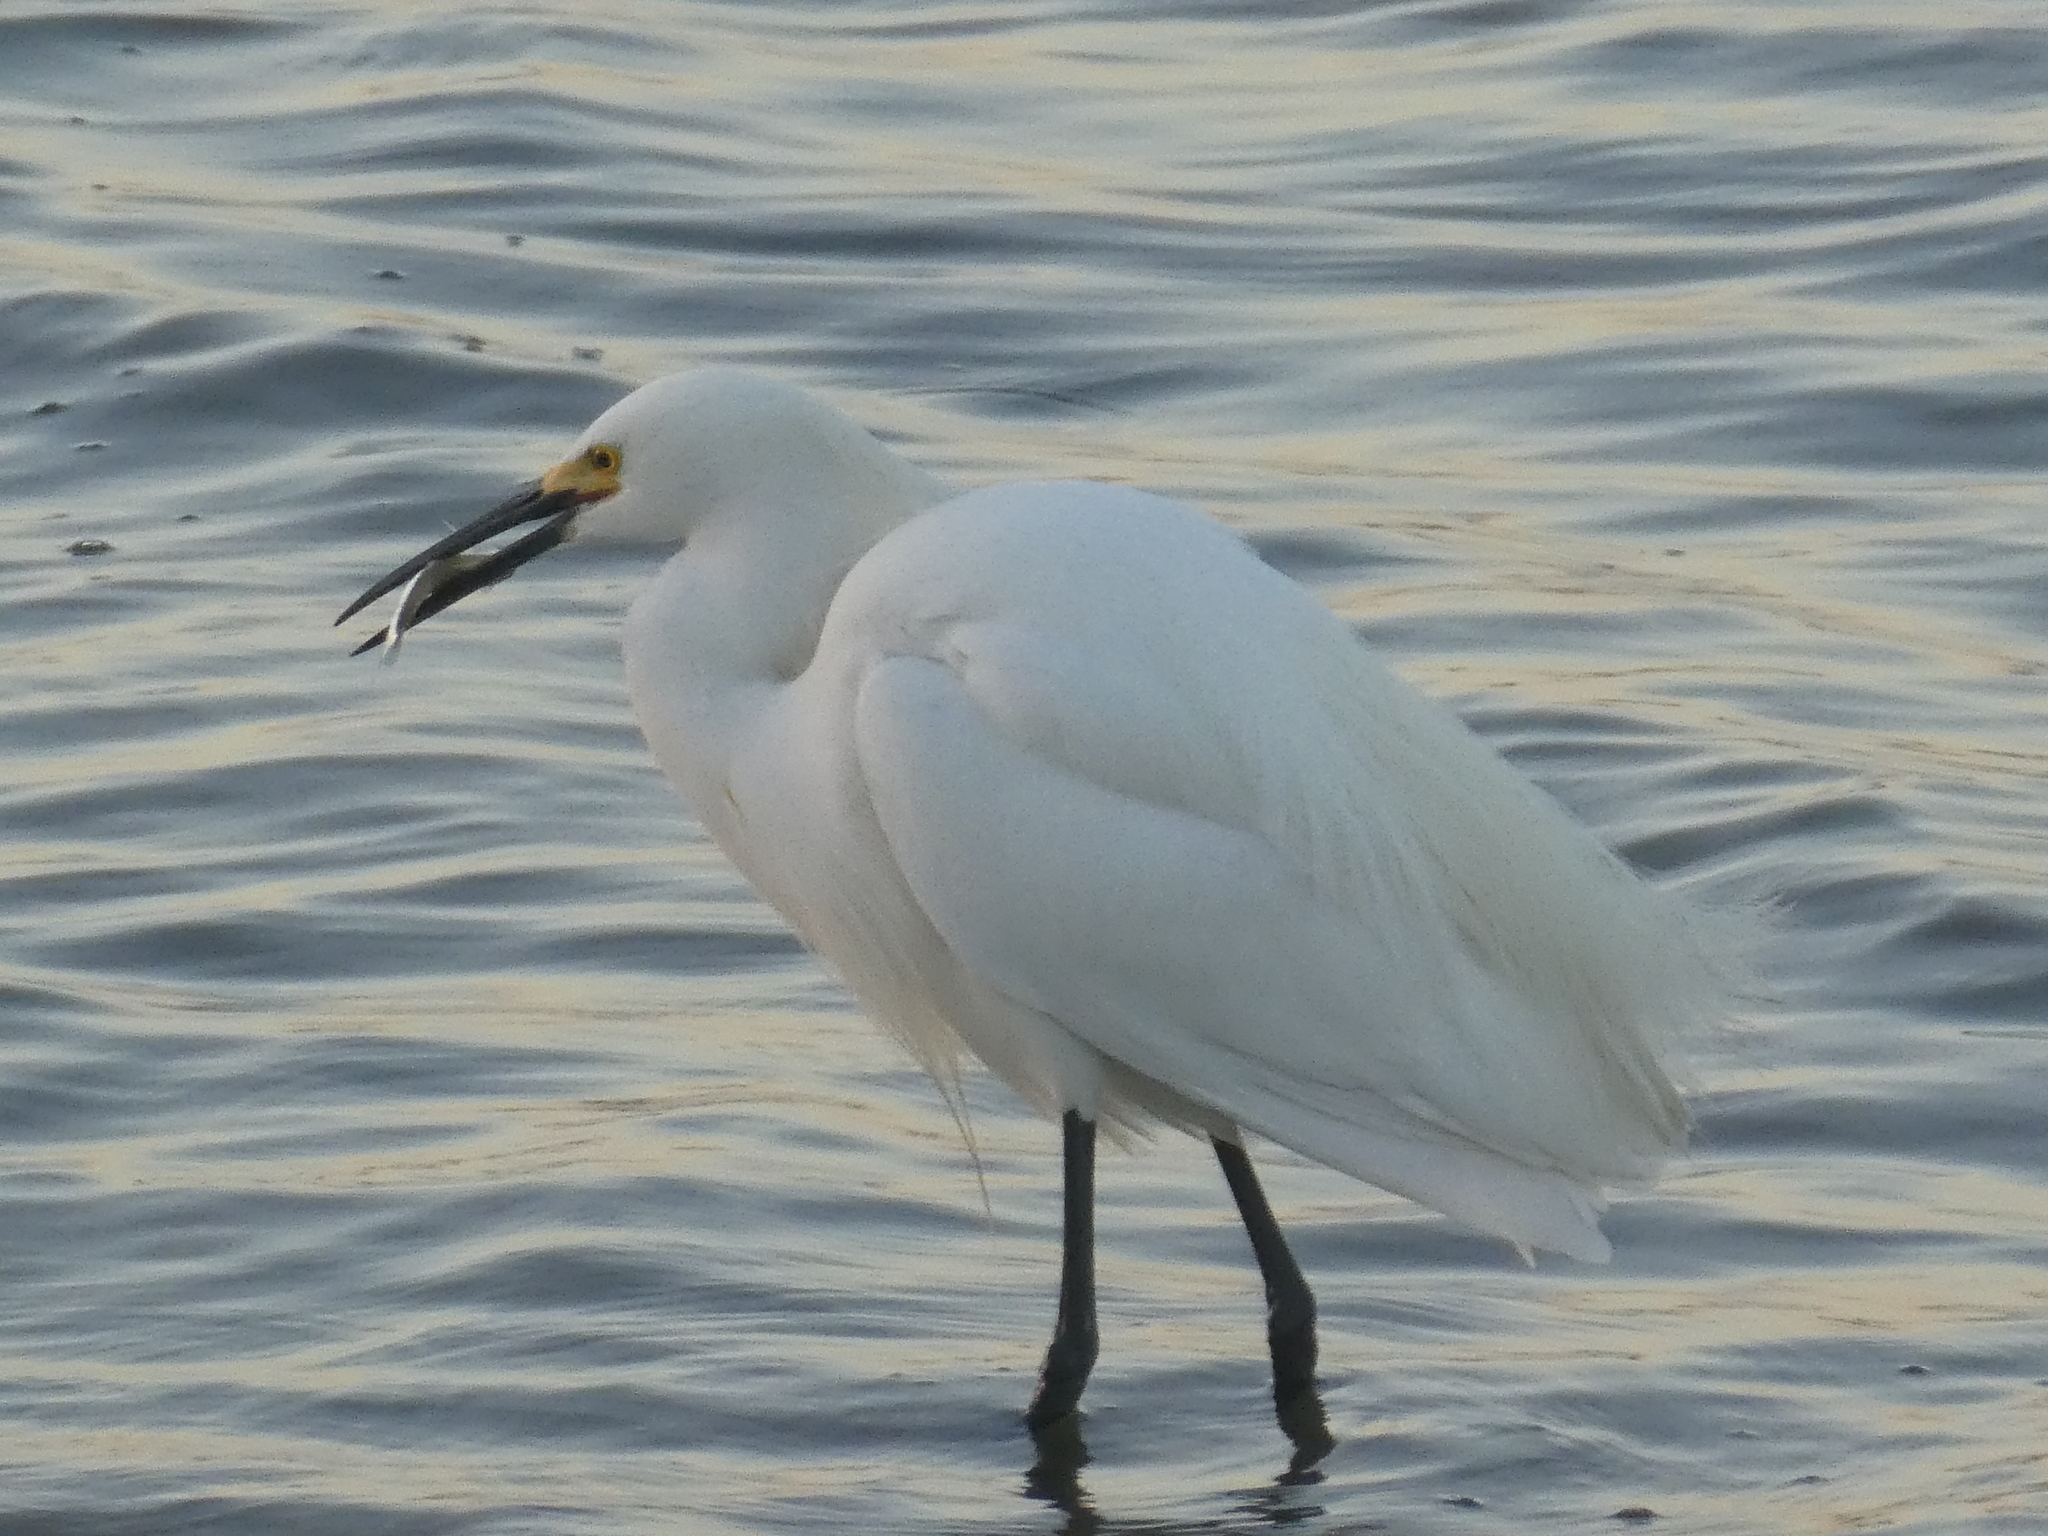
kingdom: Animalia
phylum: Chordata
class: Aves
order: Pelecaniformes
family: Ardeidae
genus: Egretta
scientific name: Egretta thula
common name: Snowy egret
